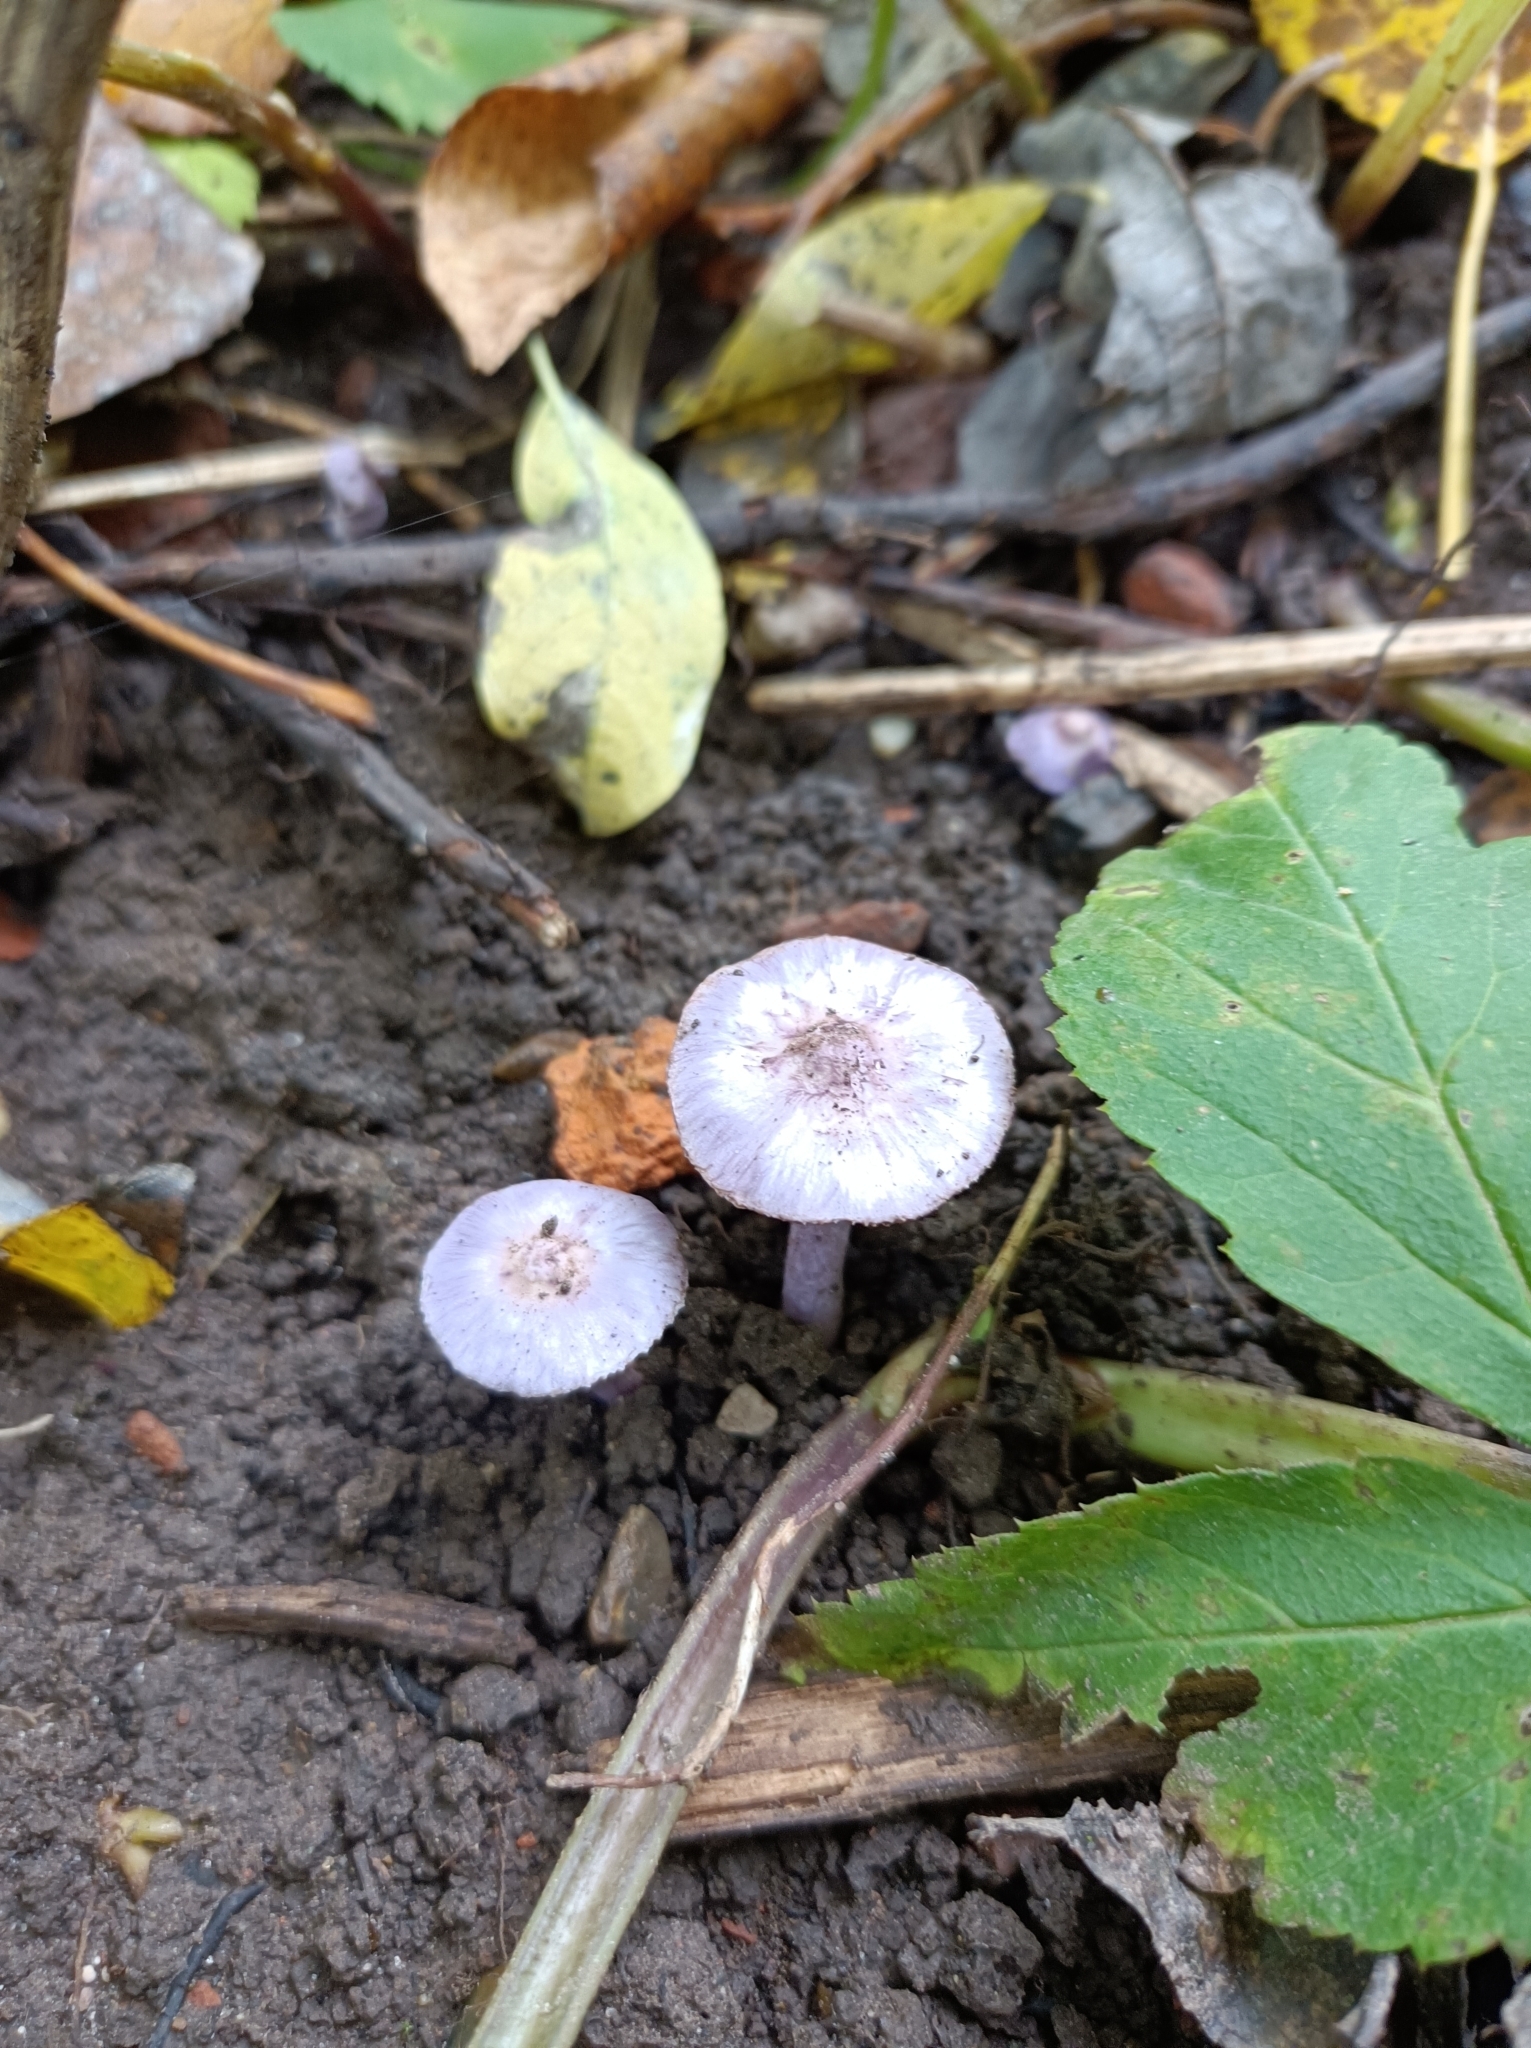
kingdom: Fungi
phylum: Basidiomycota
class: Agaricomycetes
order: Agaricales
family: Inocybaceae
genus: Inocybe
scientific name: Inocybe geophylla
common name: White fibrecap
